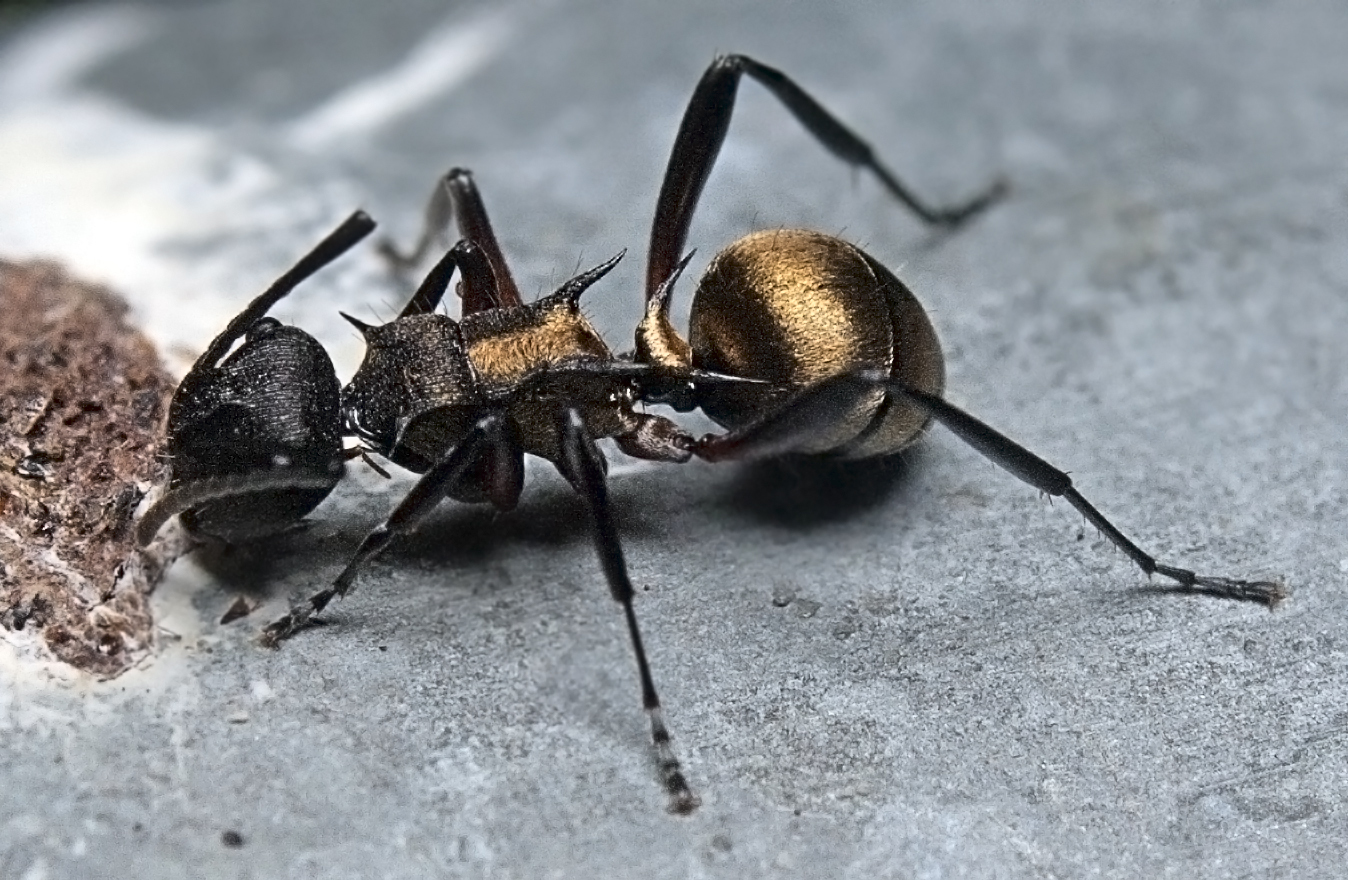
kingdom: Animalia
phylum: Arthropoda
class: Insecta
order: Hymenoptera
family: Formicidae
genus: Polyrhachis
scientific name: Polyrhachis rufifemur
